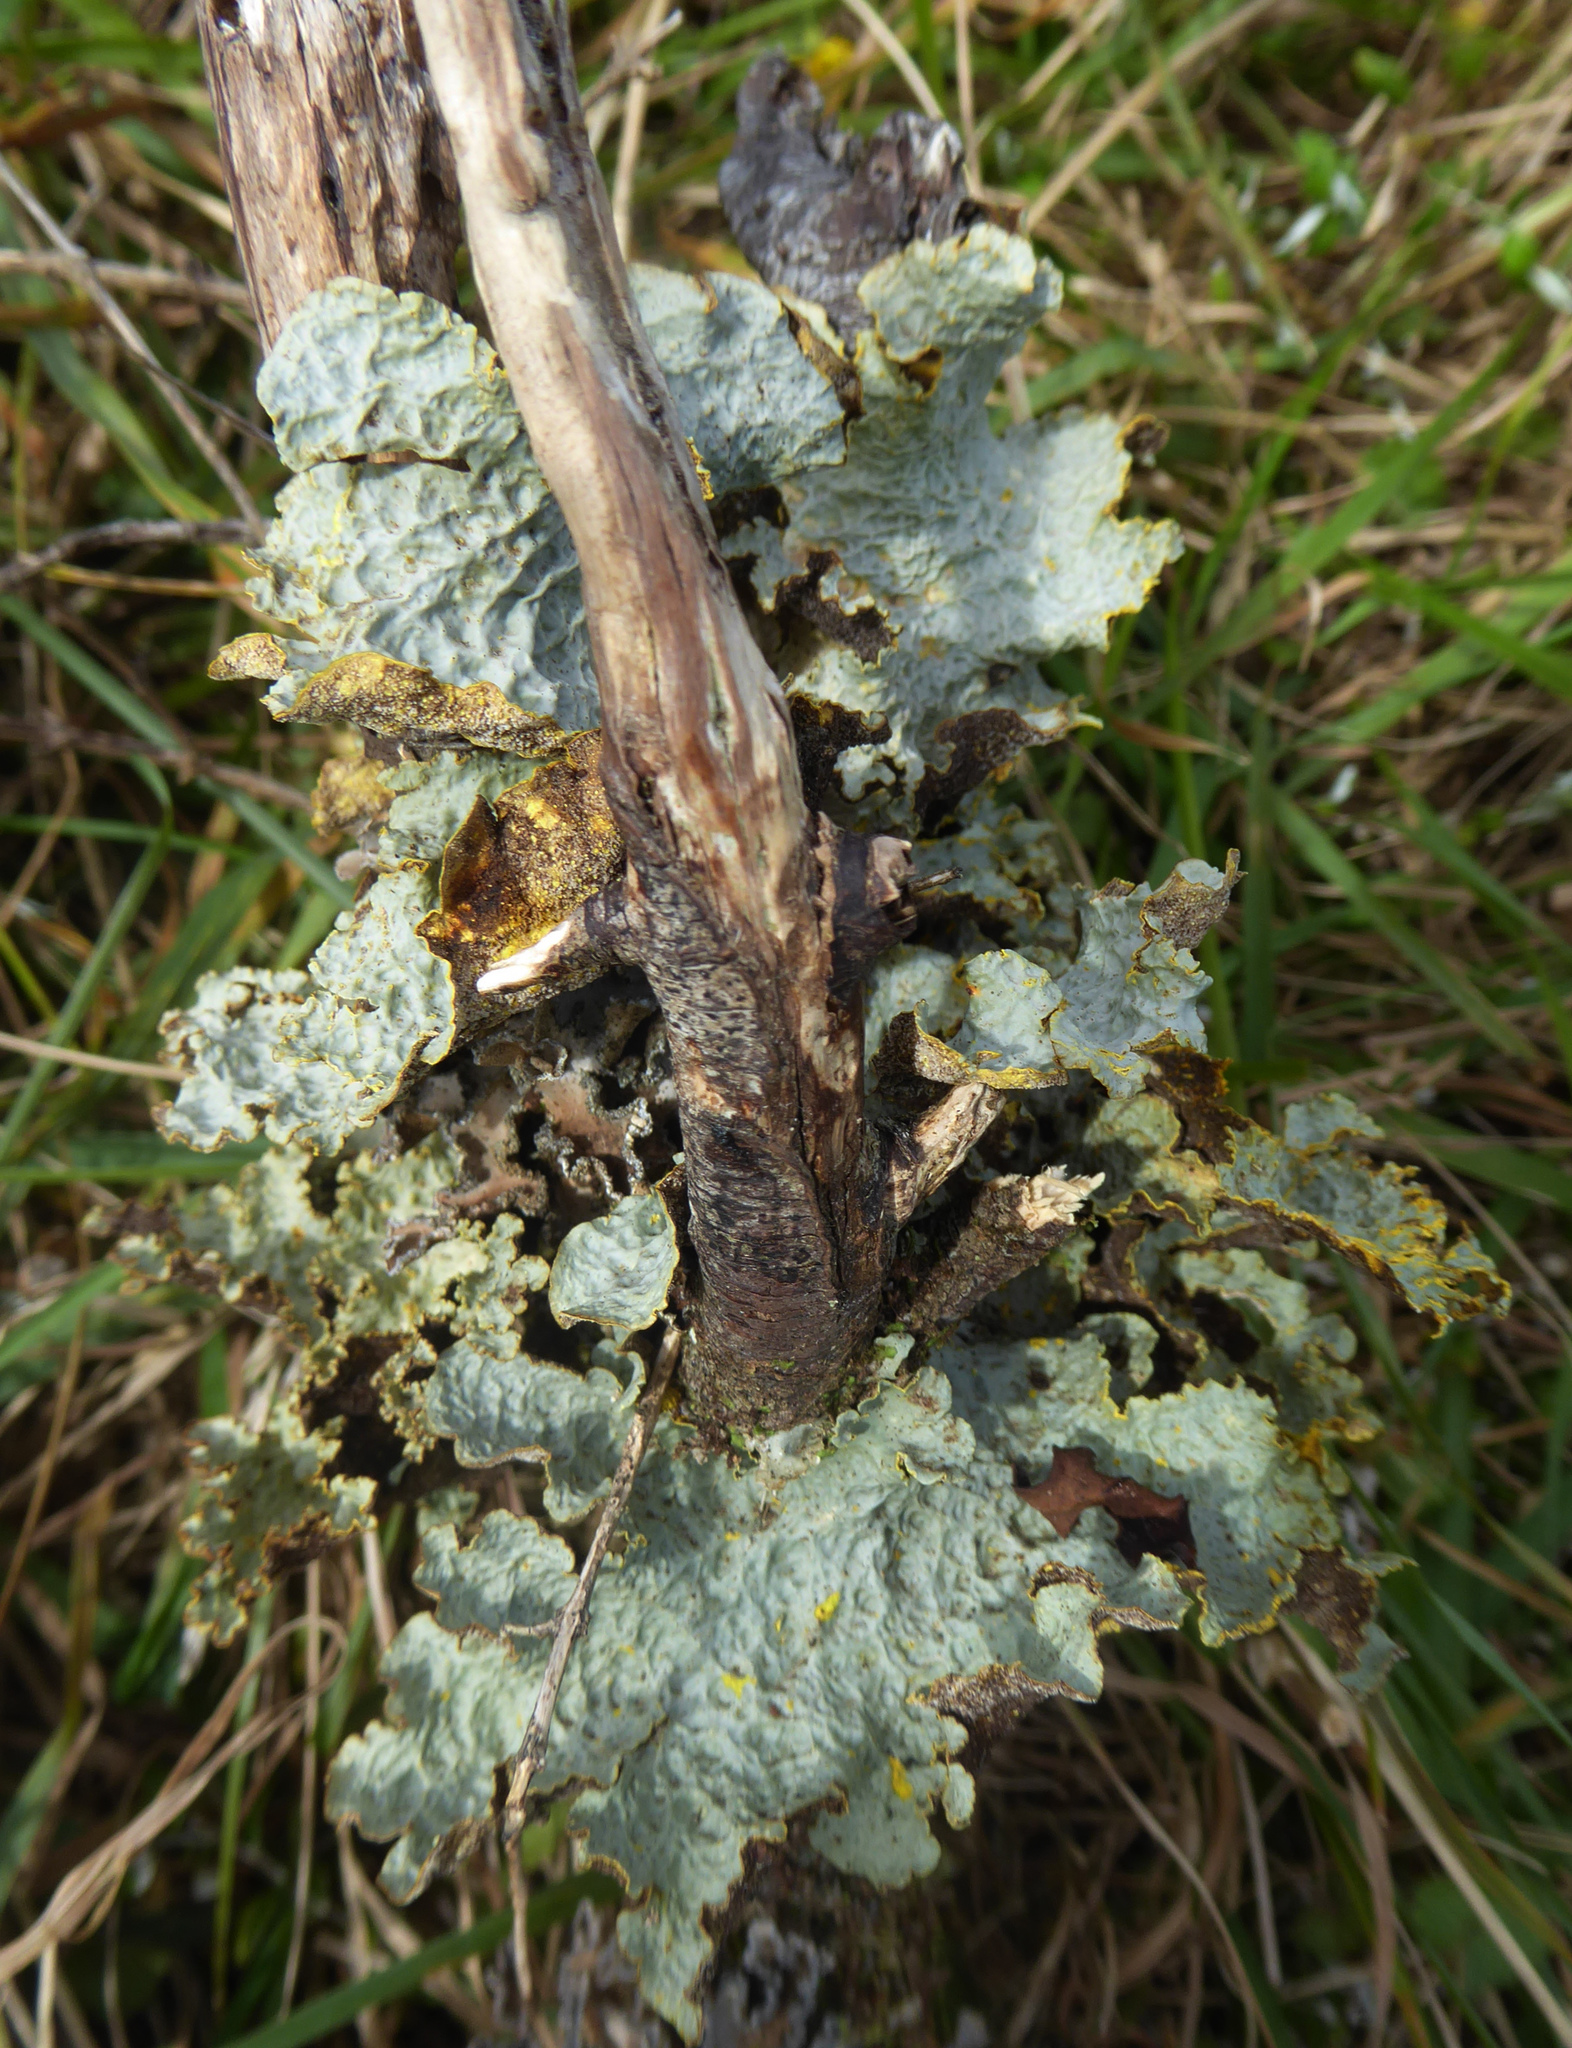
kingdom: Fungi
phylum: Ascomycota
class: Lecanoromycetes
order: Peltigerales
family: Lobariaceae
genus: Yarrumia
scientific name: Yarrumia coronata
